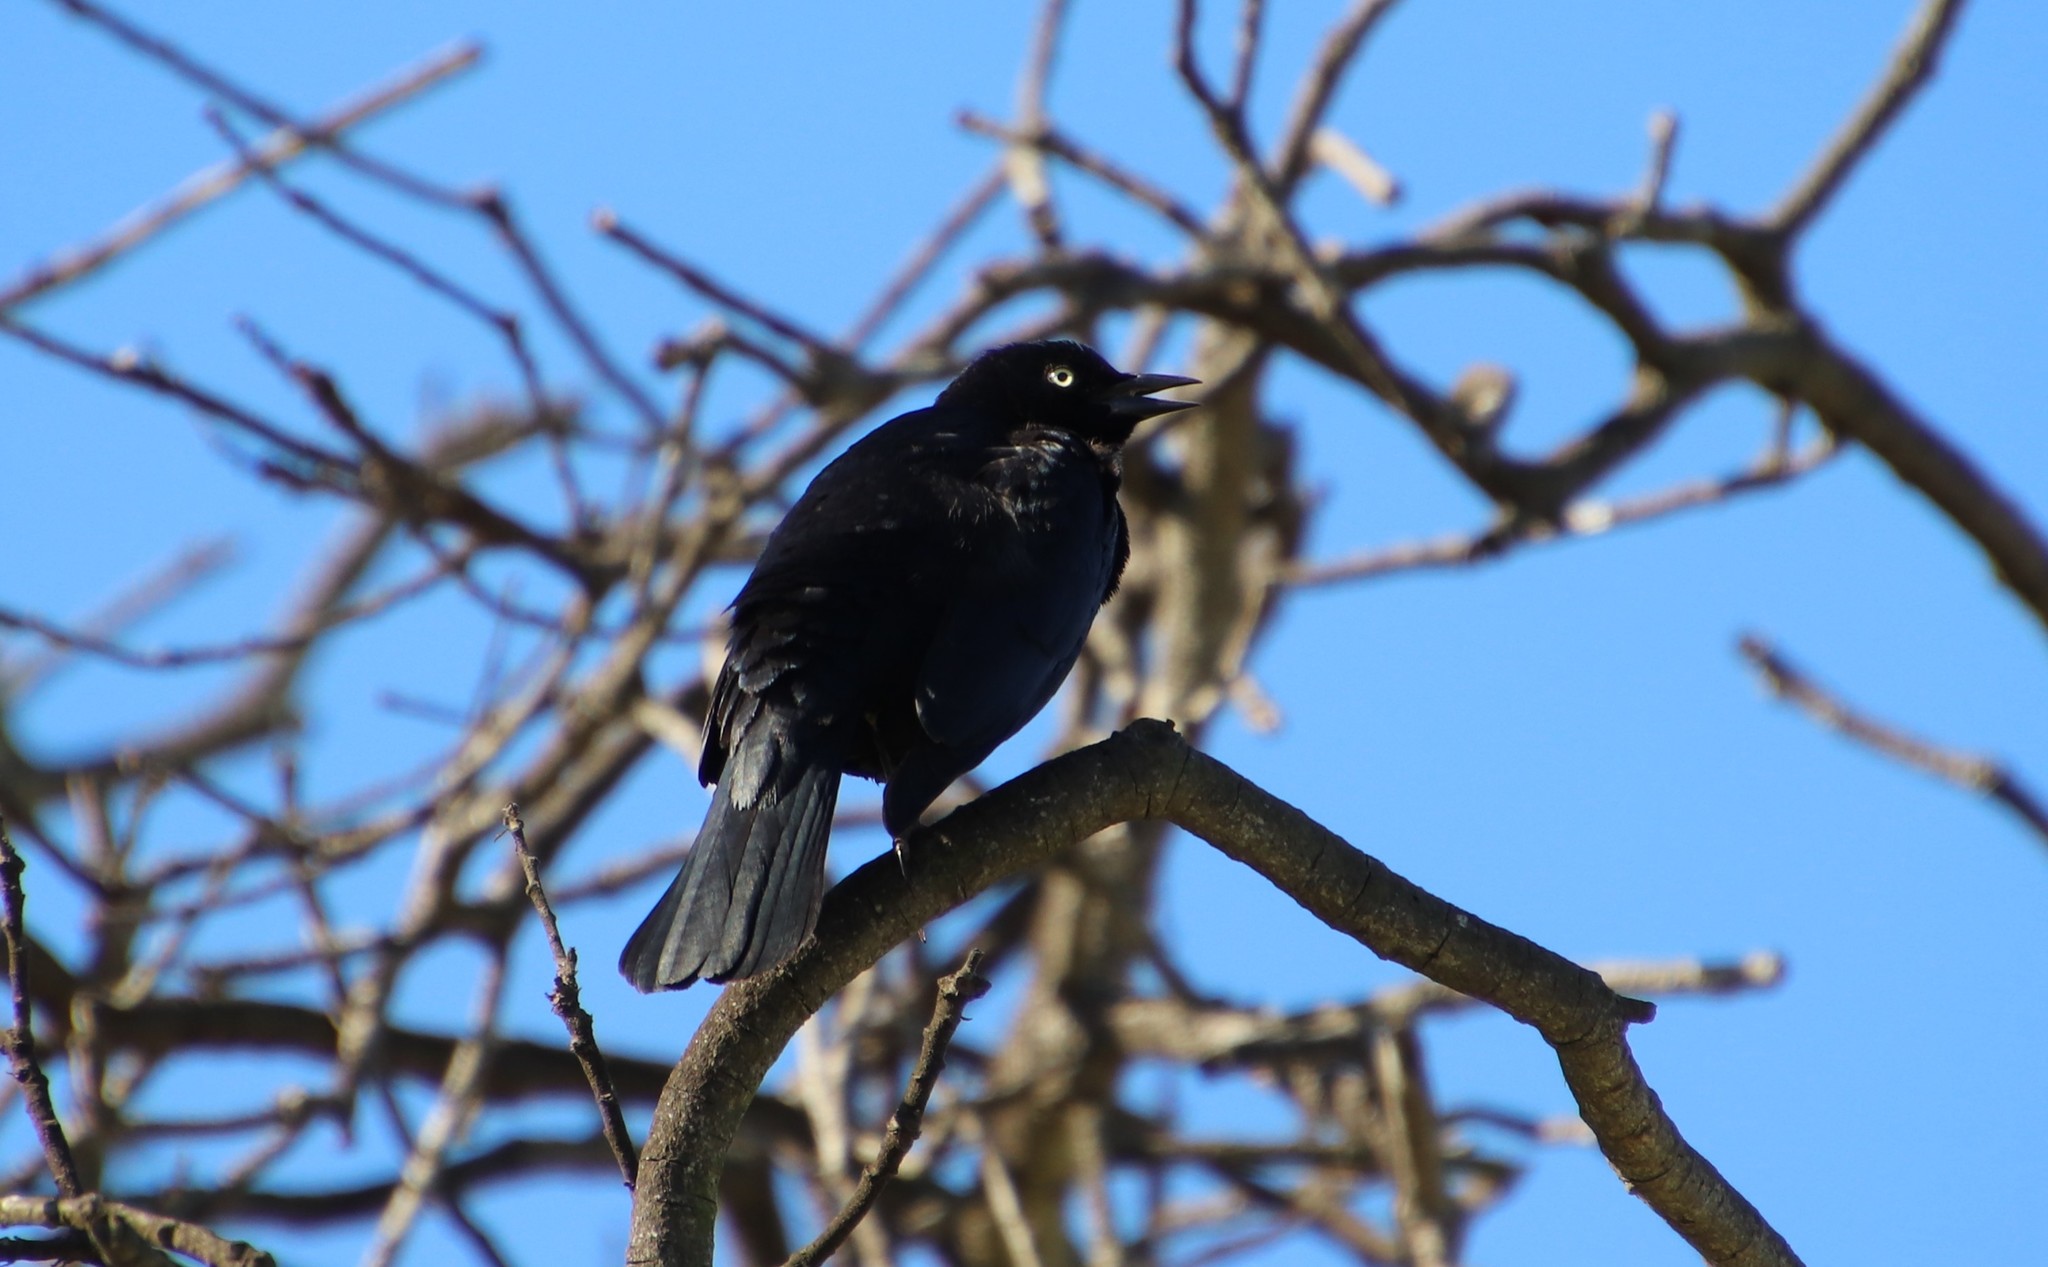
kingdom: Animalia
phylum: Chordata
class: Aves
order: Passeriformes
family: Icteridae
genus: Euphagus
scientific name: Euphagus cyanocephalus
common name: Brewer's blackbird
